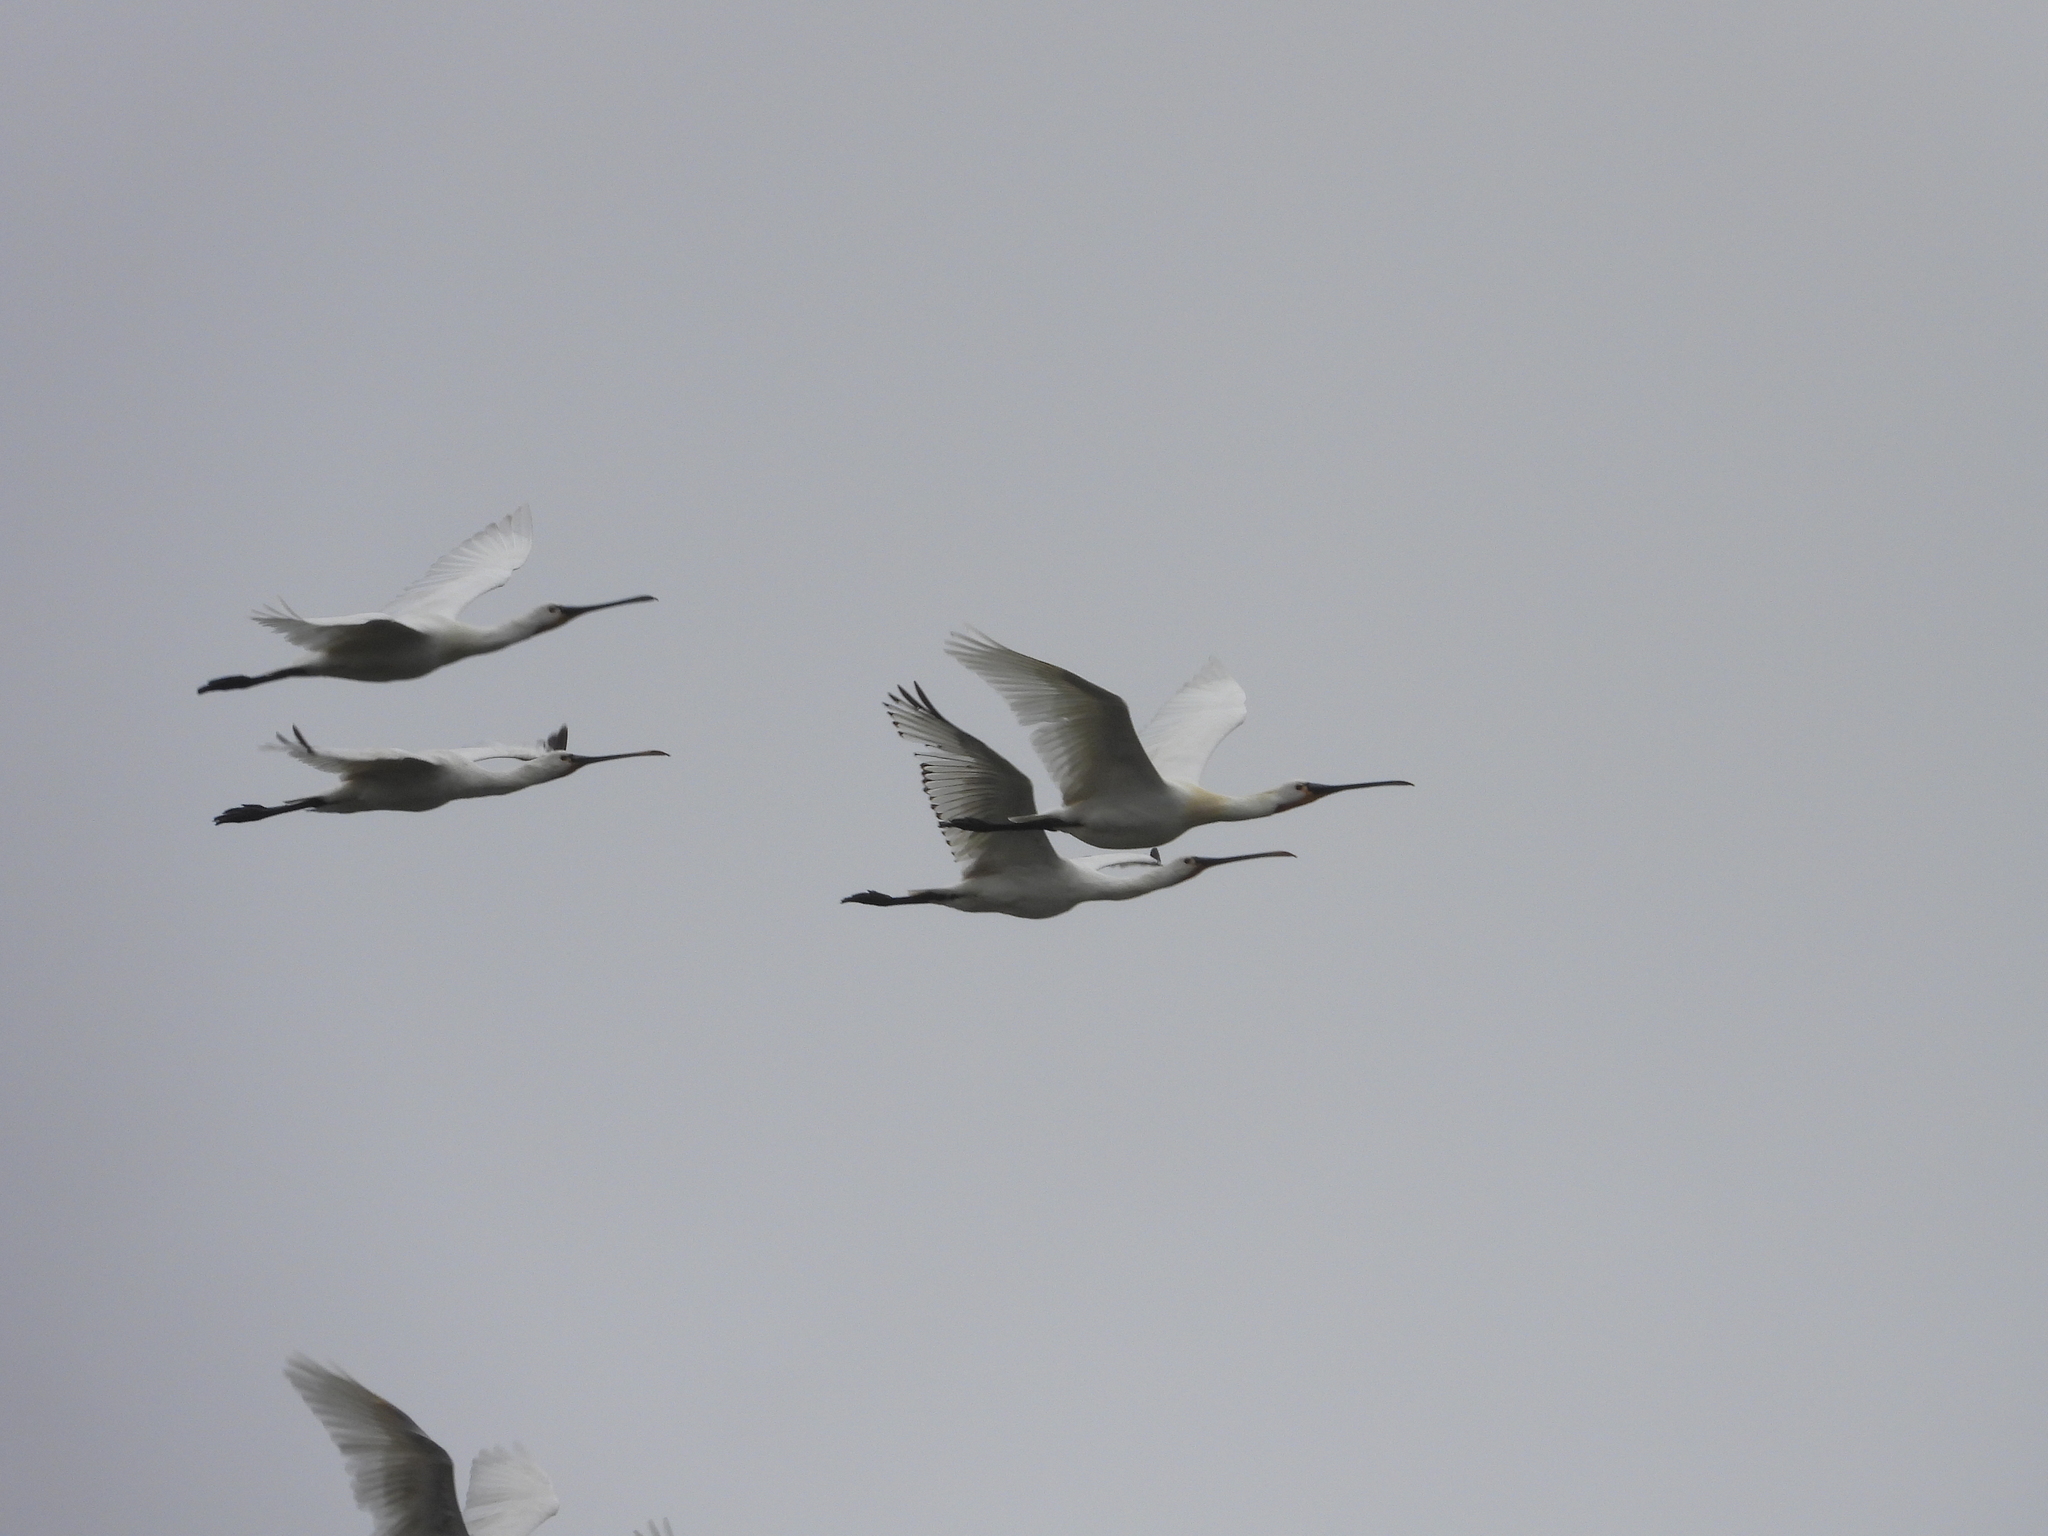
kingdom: Animalia
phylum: Chordata
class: Aves
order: Pelecaniformes
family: Threskiornithidae
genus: Platalea
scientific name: Platalea leucorodia
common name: Eurasian spoonbill
